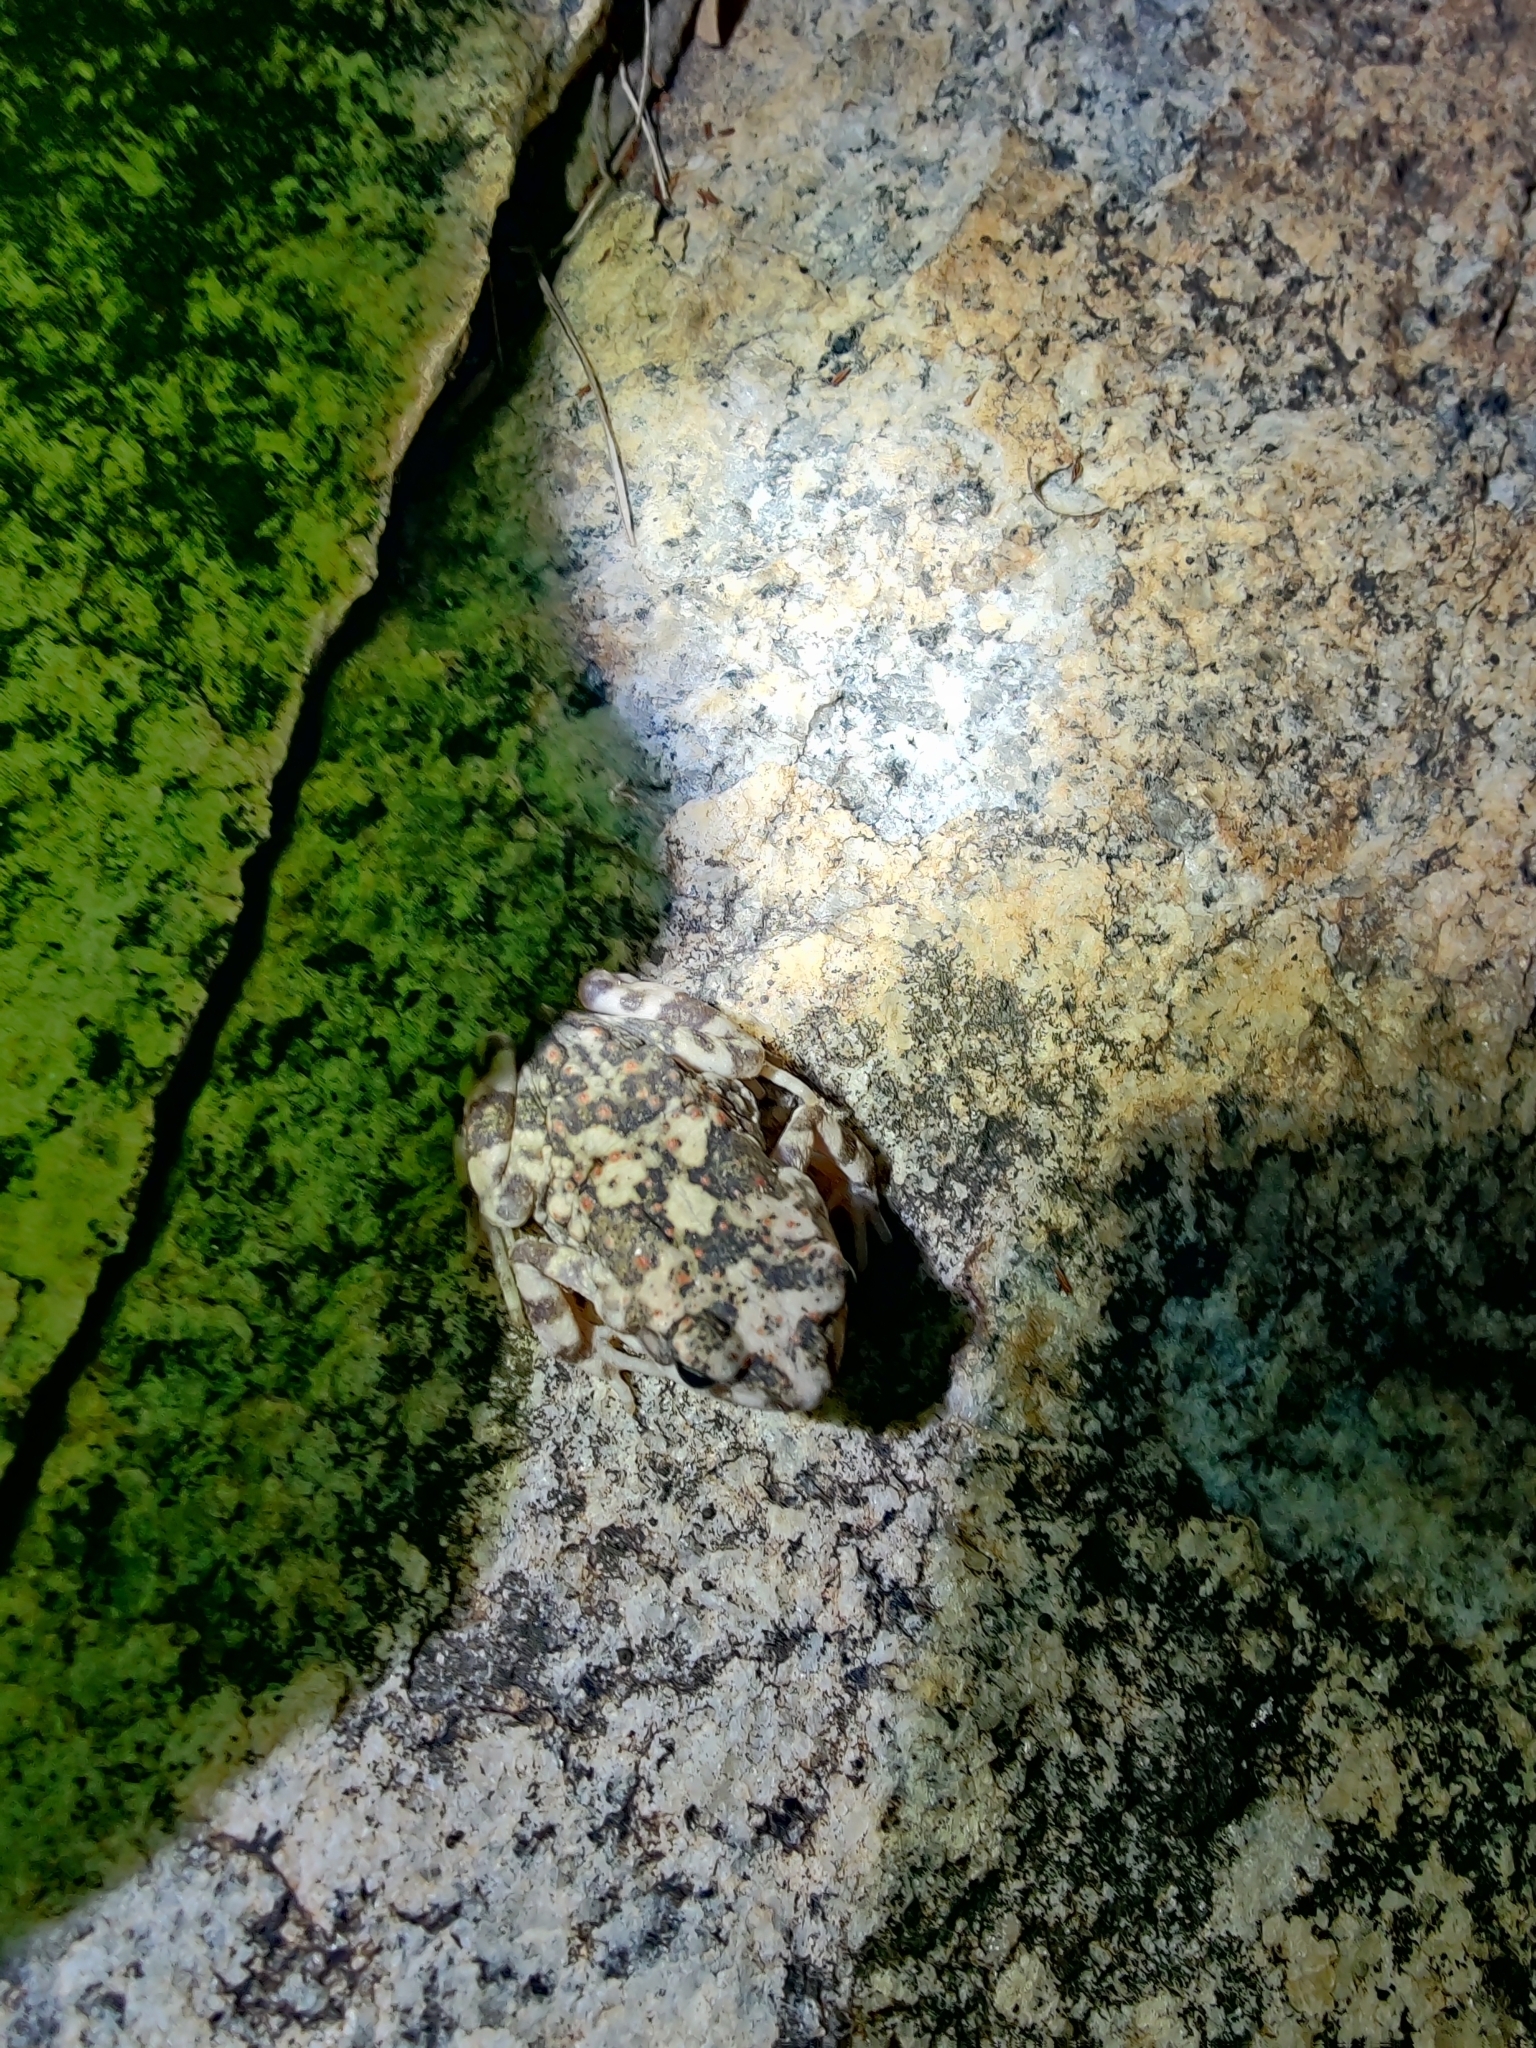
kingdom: Animalia
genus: Firouzophrynus
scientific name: Firouzophrynus
